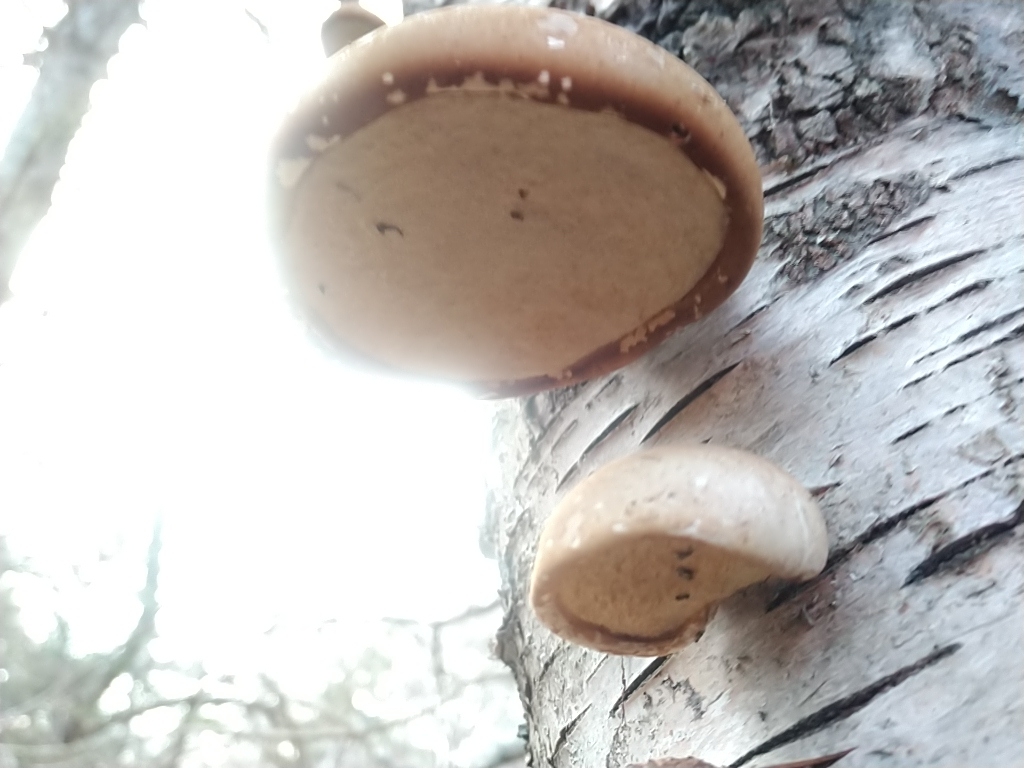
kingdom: Fungi
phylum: Basidiomycota
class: Agaricomycetes
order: Polyporales
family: Fomitopsidaceae
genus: Fomitopsis
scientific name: Fomitopsis betulina
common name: Birch polypore
